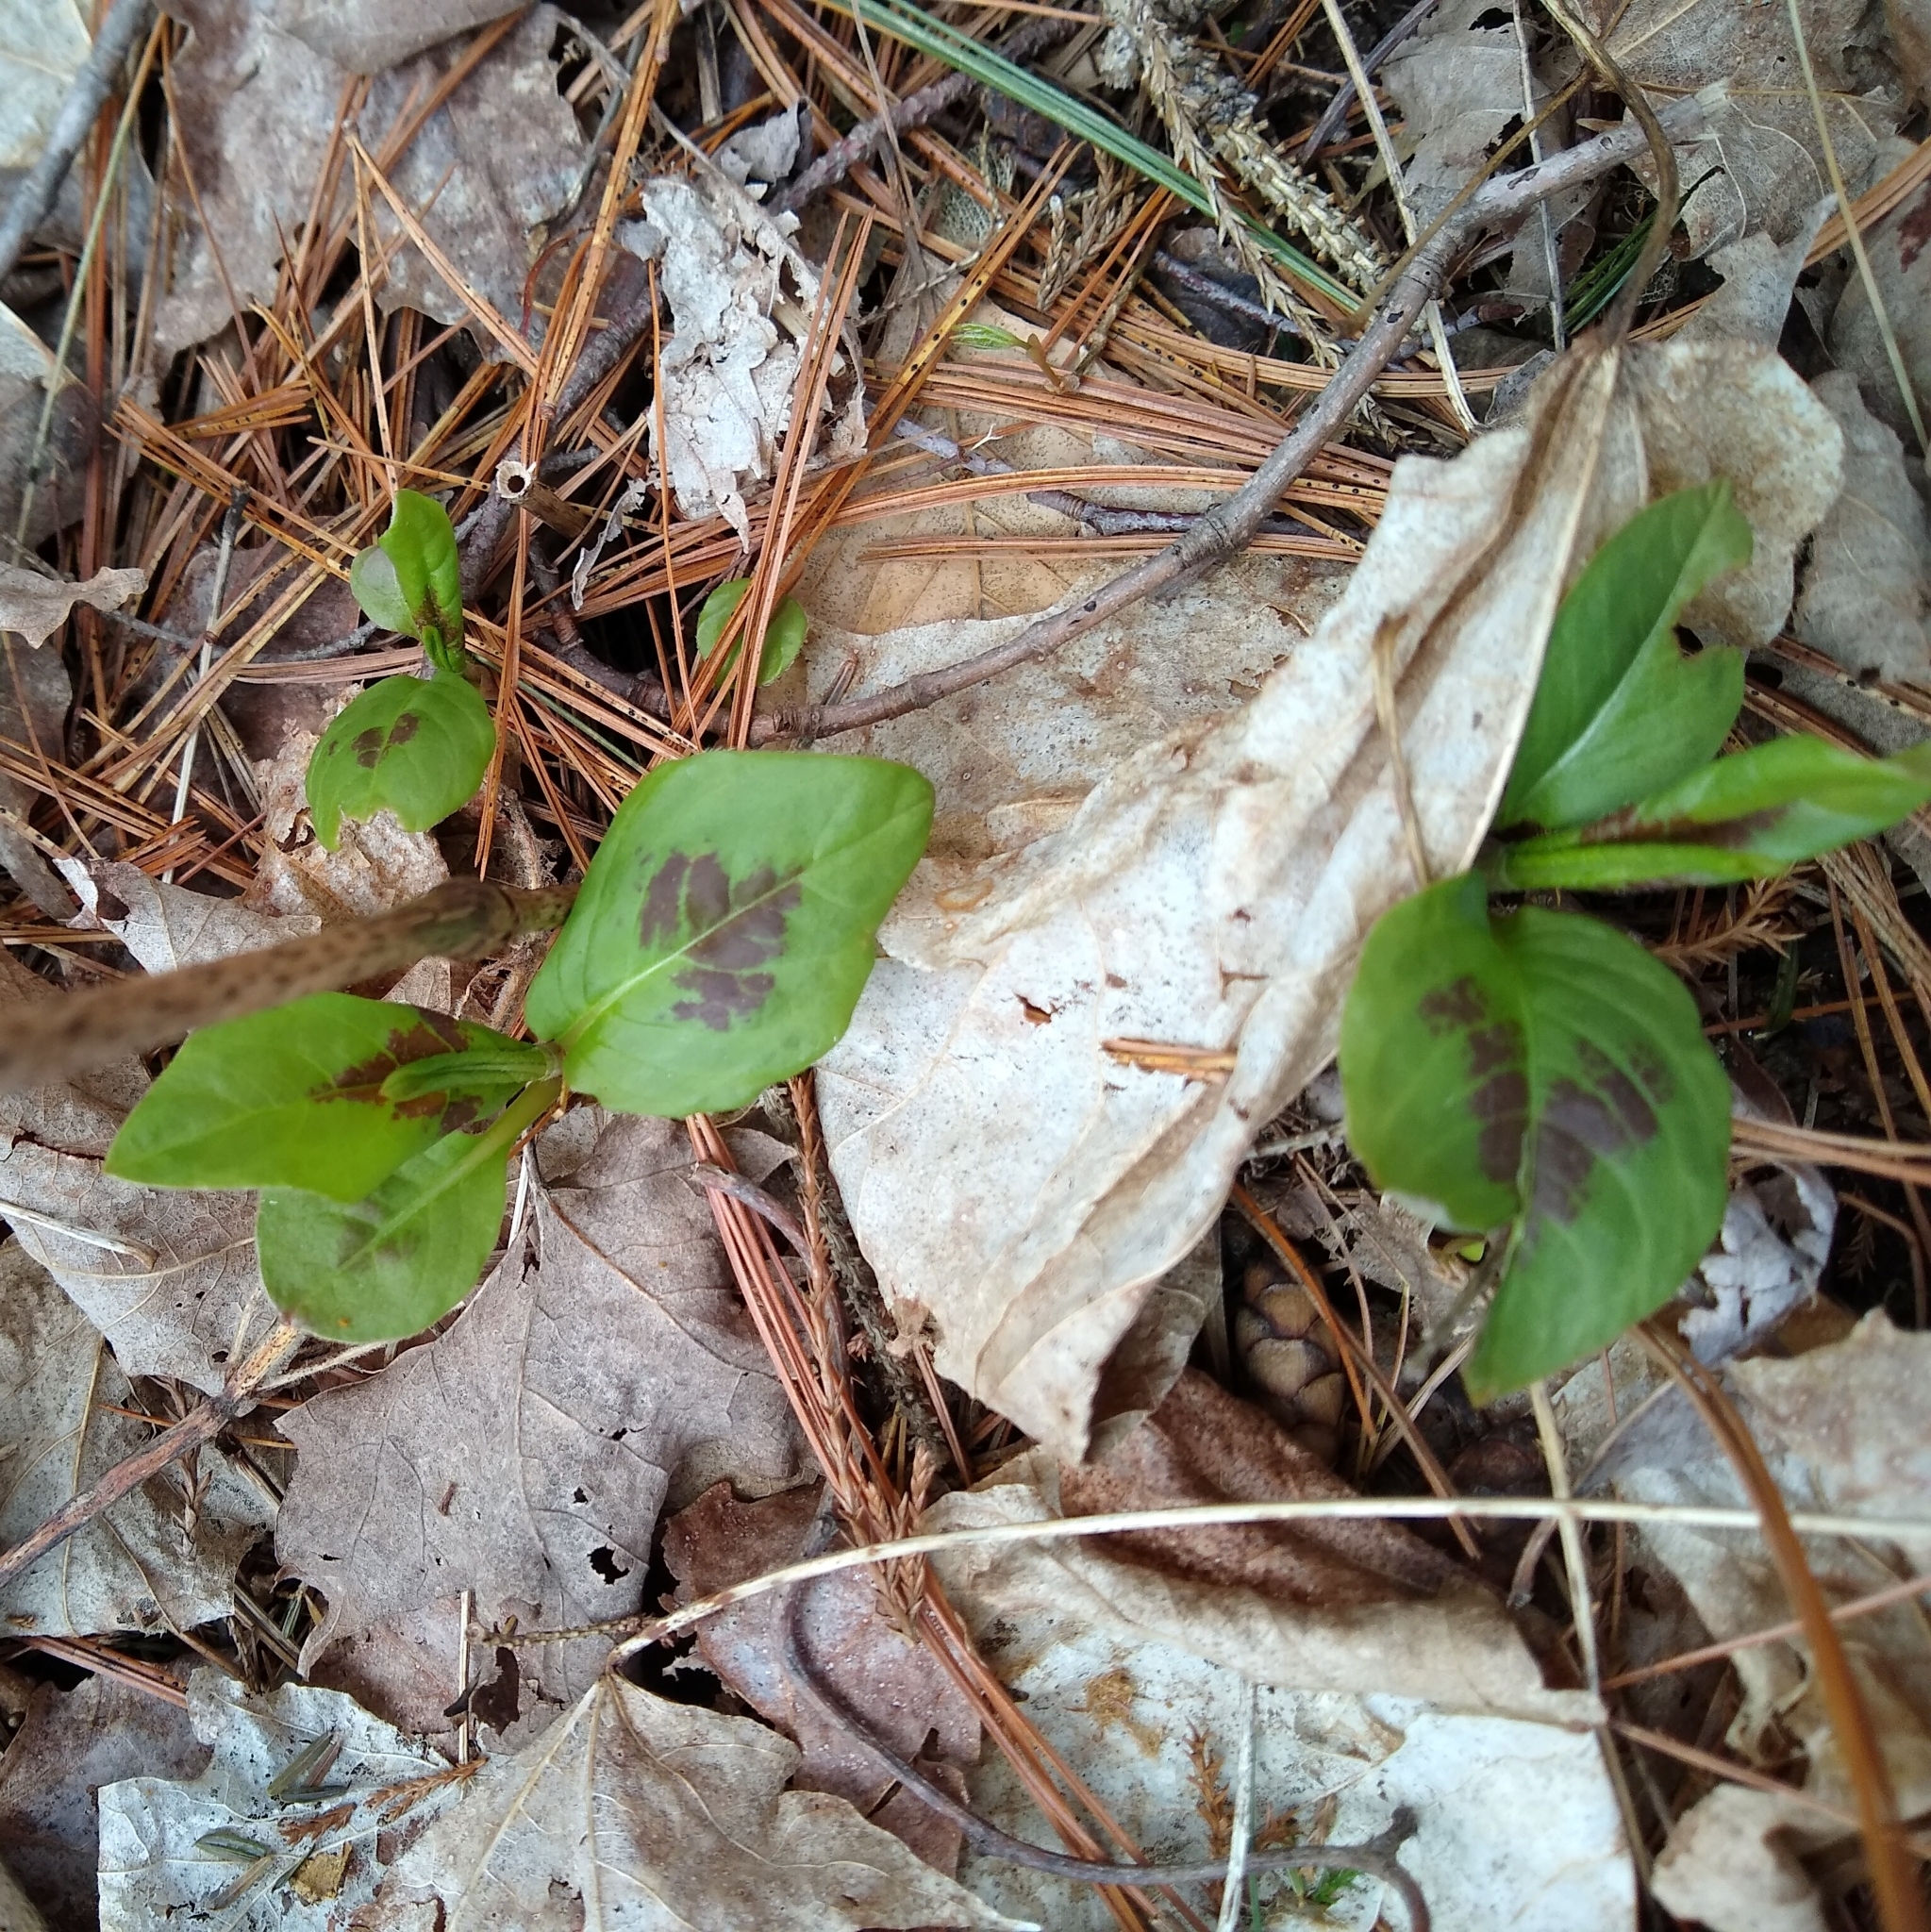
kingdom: Plantae
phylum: Tracheophyta
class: Magnoliopsida
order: Caryophyllales
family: Polygonaceae
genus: Persicaria
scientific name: Persicaria virginiana
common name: Jumpseed
